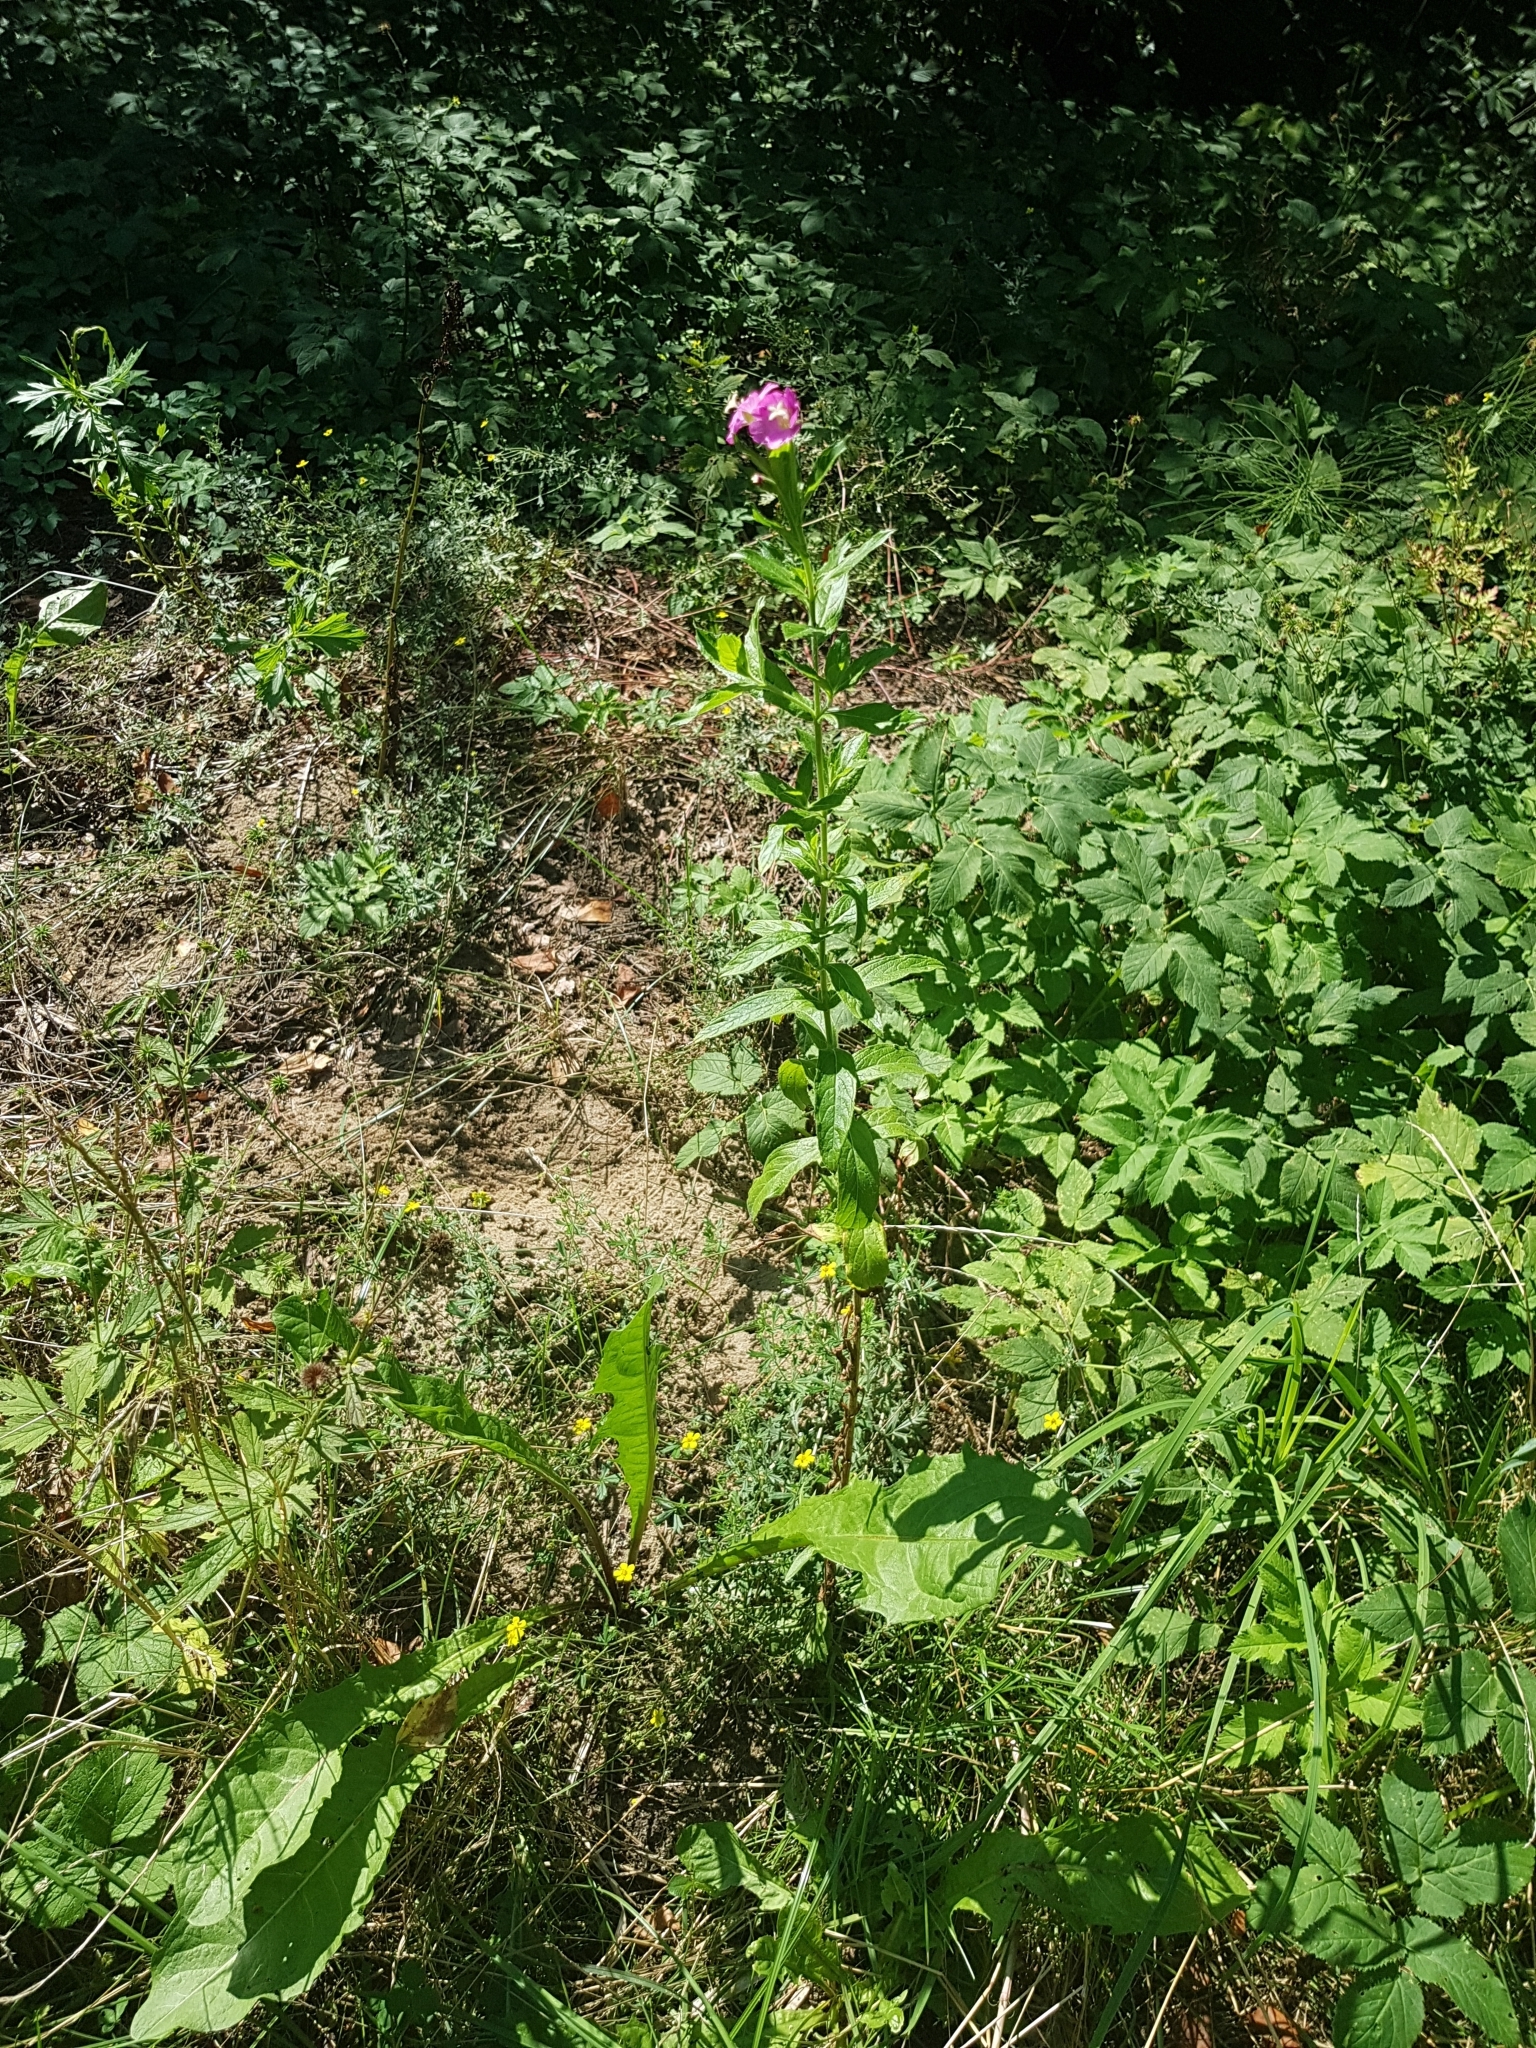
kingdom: Plantae
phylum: Tracheophyta
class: Magnoliopsida
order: Myrtales
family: Onagraceae
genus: Epilobium
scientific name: Epilobium hirsutum
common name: Great willowherb
